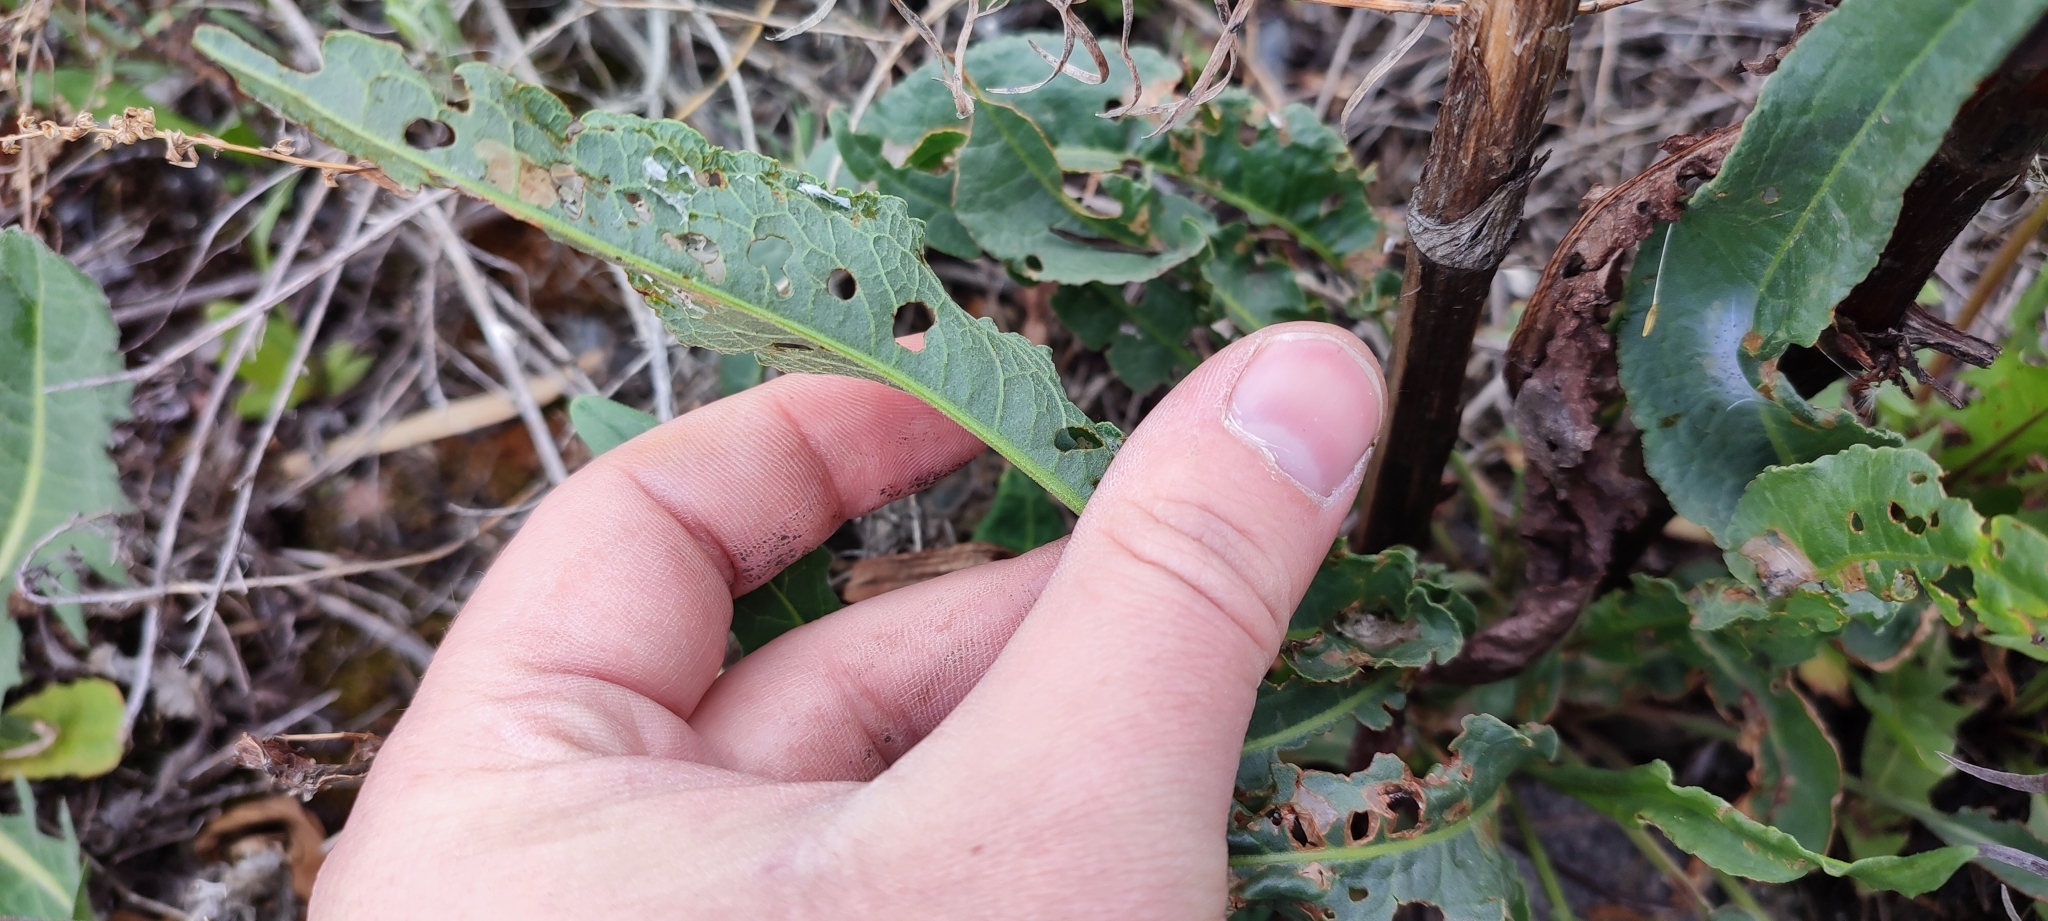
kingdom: Plantae
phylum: Tracheophyta
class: Magnoliopsida
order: Caryophyllales
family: Polygonaceae
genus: Rumex
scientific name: Rumex pseudonatronatus
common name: Field dock
